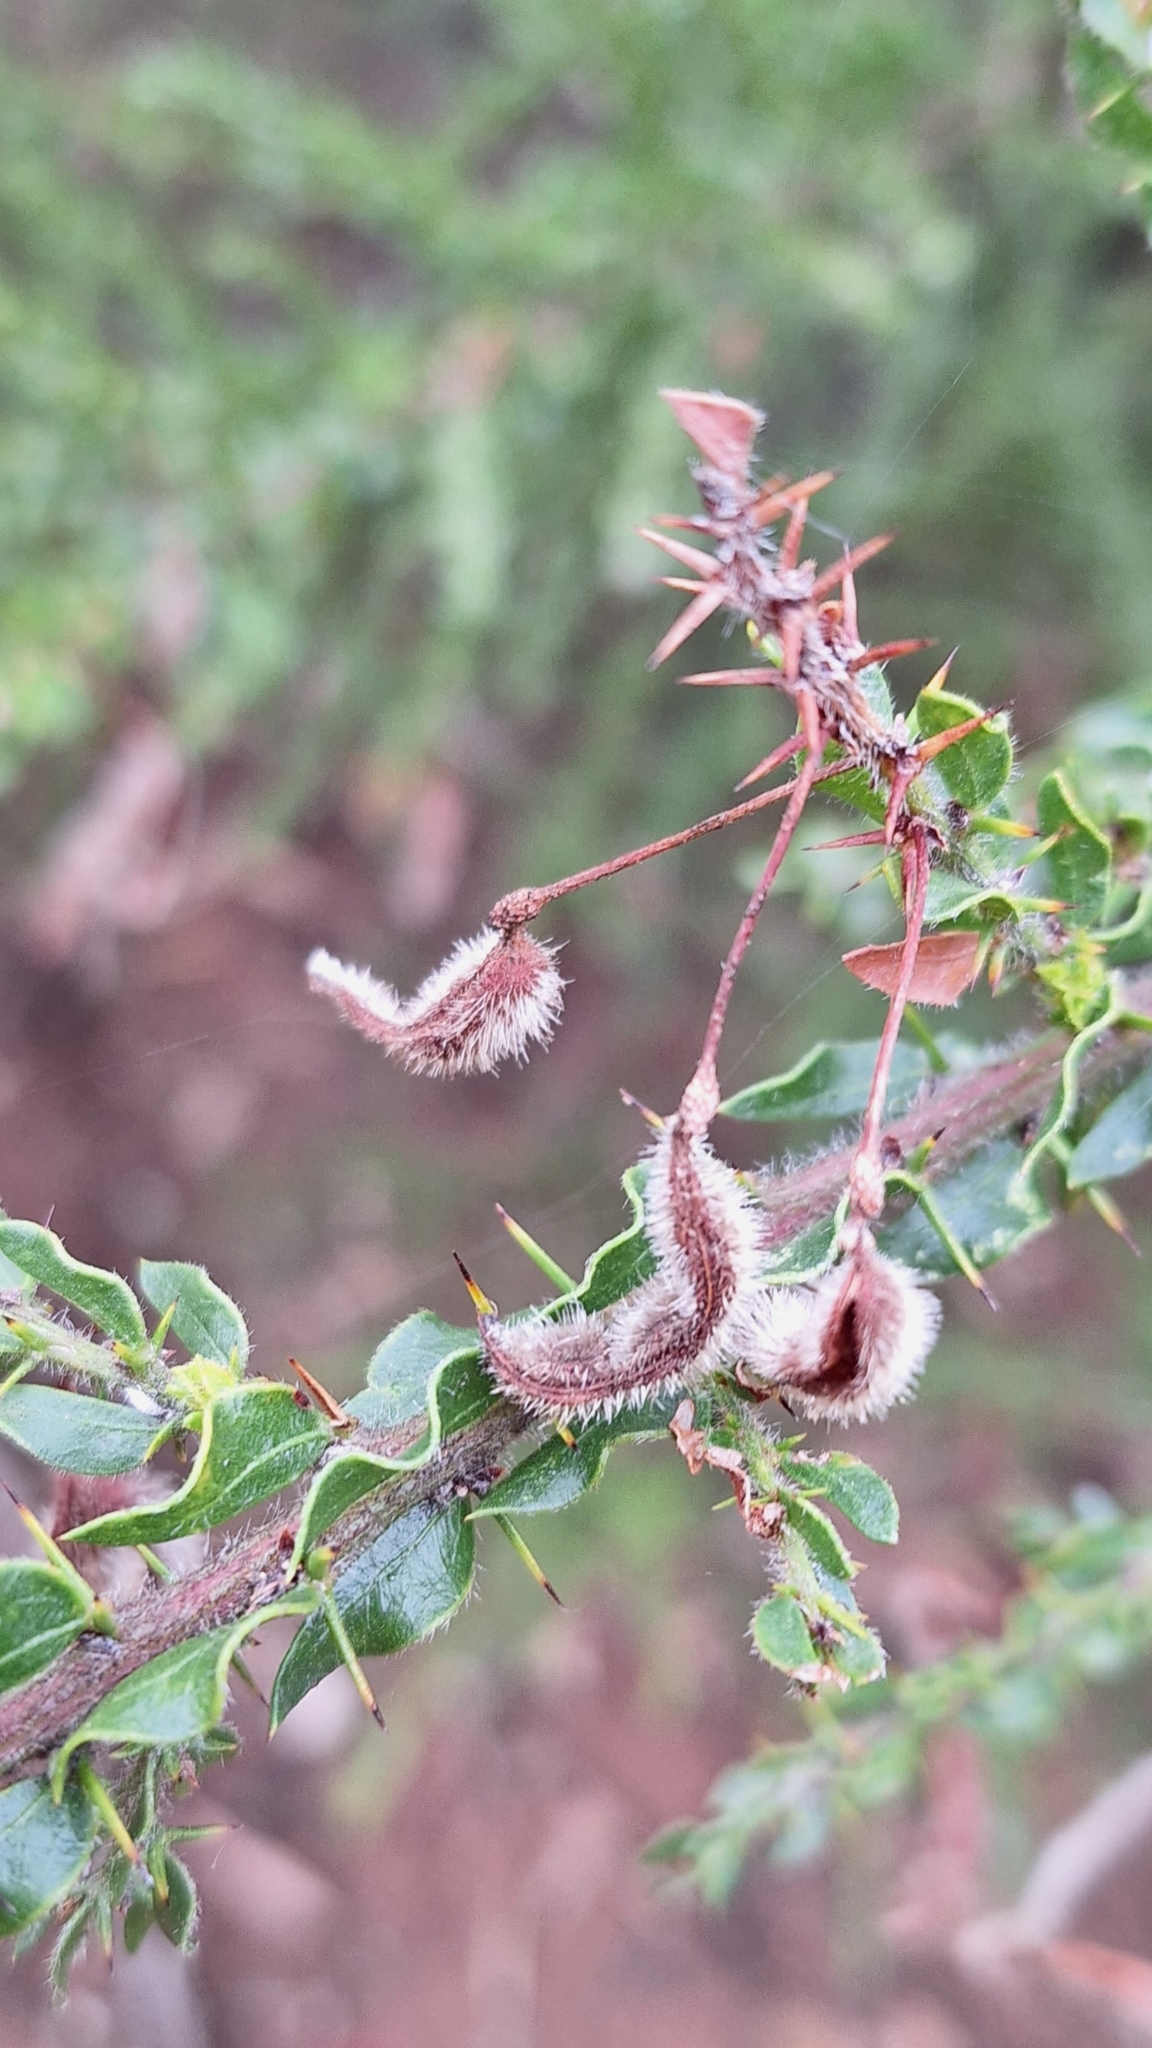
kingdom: Plantae
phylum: Tracheophyta
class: Magnoliopsida
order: Fabales
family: Fabaceae
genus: Acacia
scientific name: Acacia paradoxa
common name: Paradox acacia
